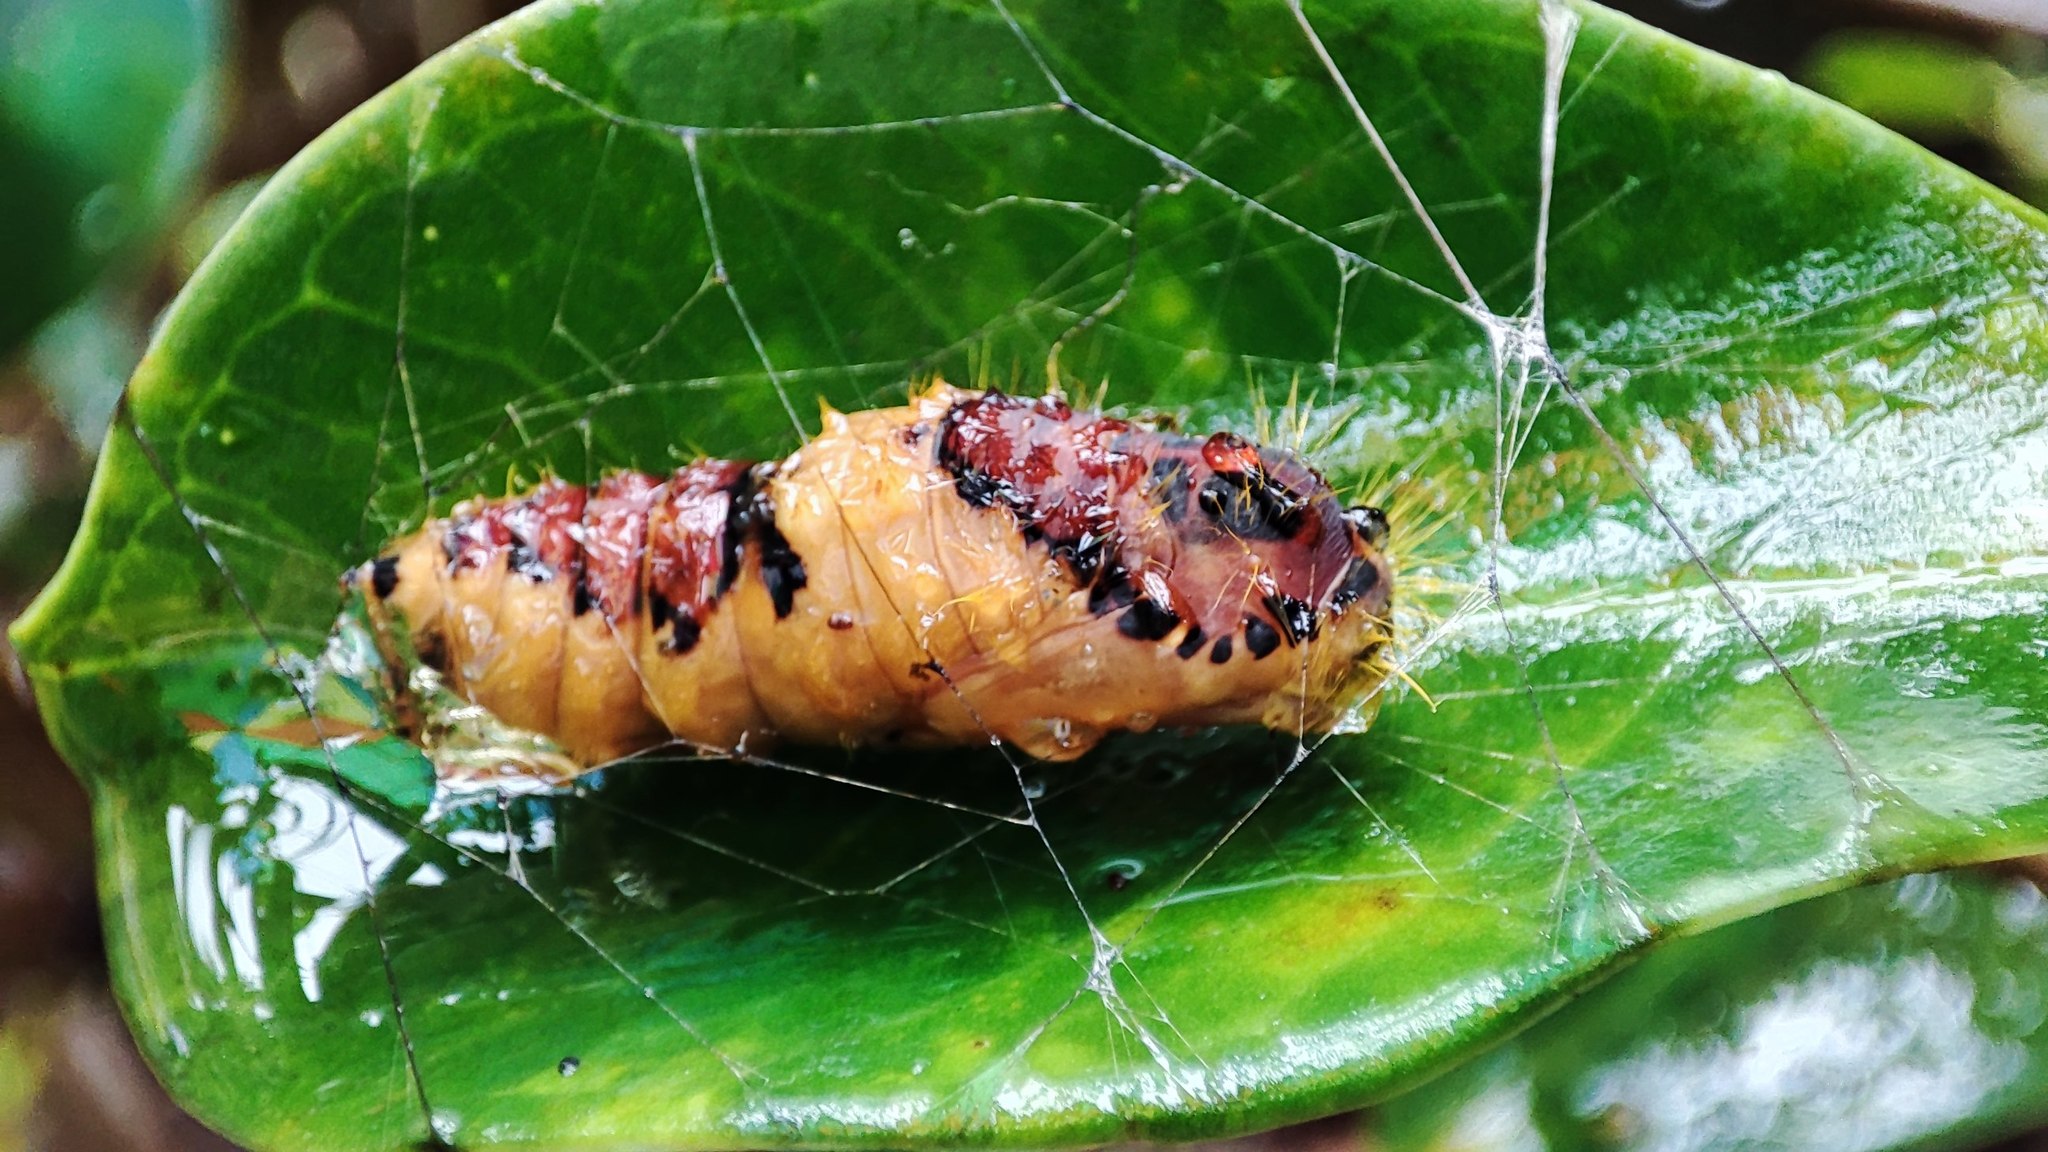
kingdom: Animalia
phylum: Arthropoda
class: Insecta
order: Lepidoptera
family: Erebidae
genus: Perina
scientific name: Perina nuda
